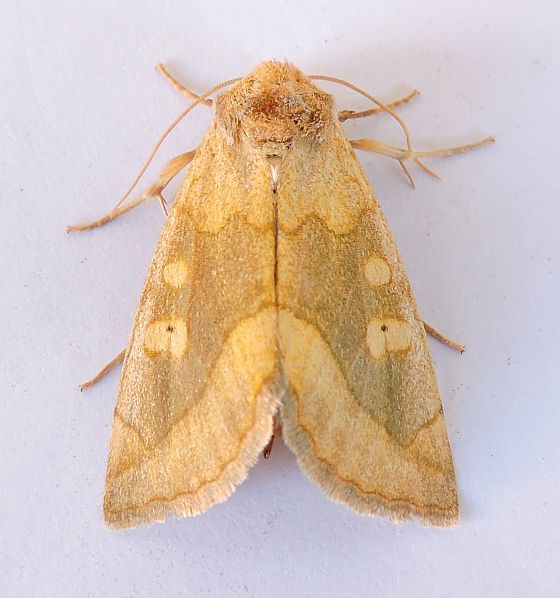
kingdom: Animalia
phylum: Arthropoda
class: Insecta
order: Lepidoptera
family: Noctuidae
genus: Basilodes
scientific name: Basilodes chrysopis
